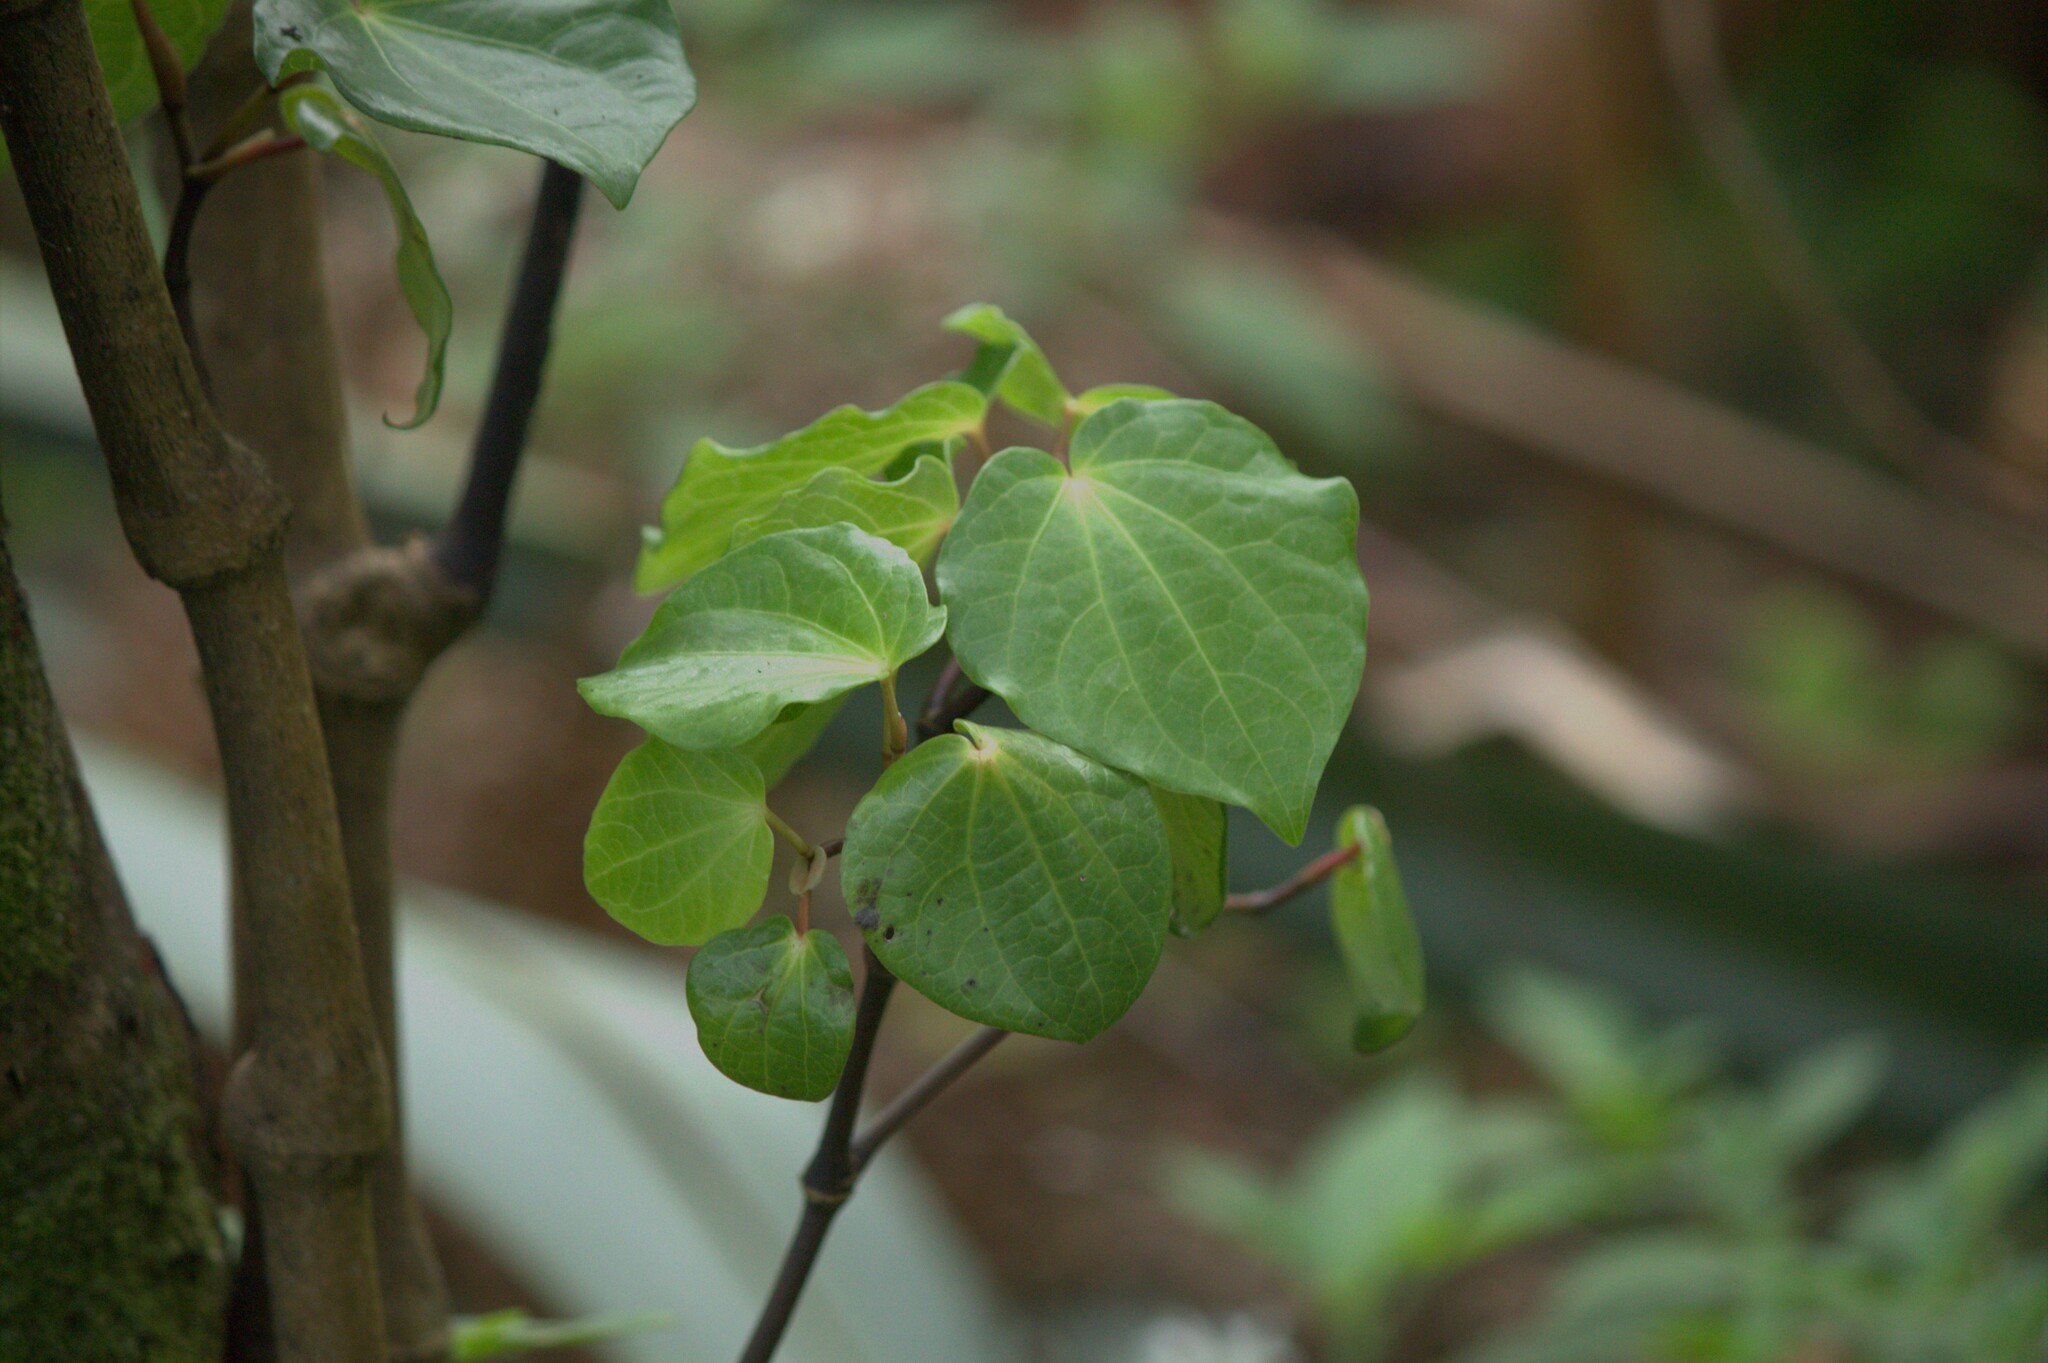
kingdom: Plantae
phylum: Tracheophyta
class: Magnoliopsida
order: Piperales
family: Piperaceae
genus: Macropiper
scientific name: Macropiper excelsum
